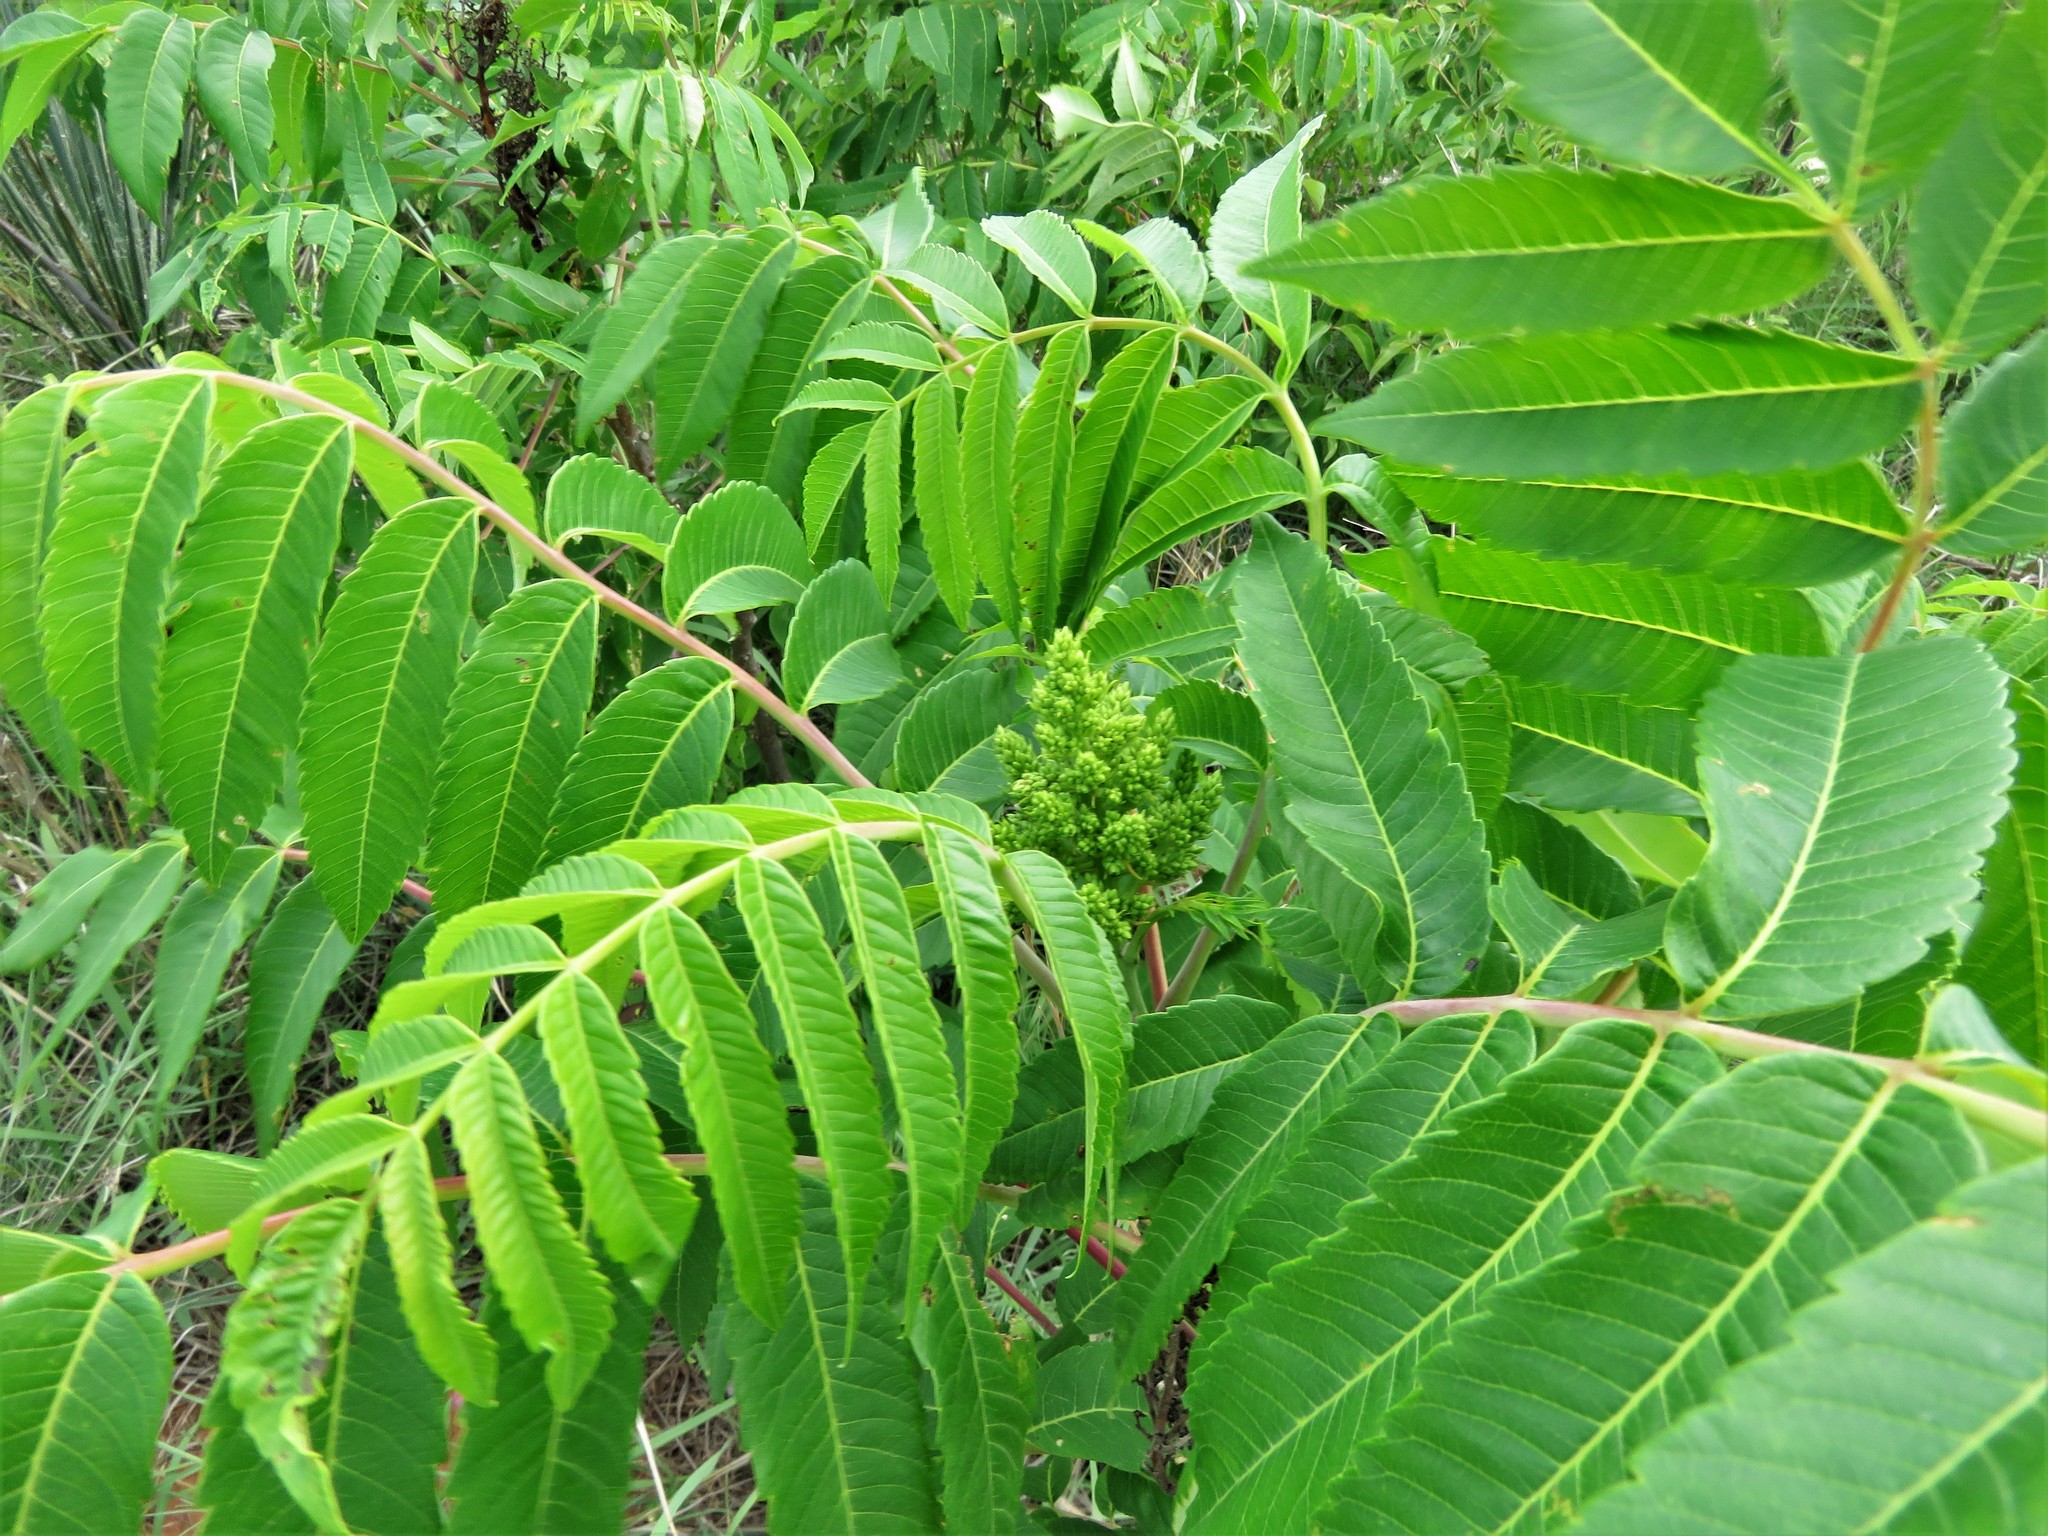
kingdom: Plantae
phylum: Tracheophyta
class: Magnoliopsida
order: Sapindales
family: Anacardiaceae
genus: Rhus
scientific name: Rhus glabra
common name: Scarlet sumac
